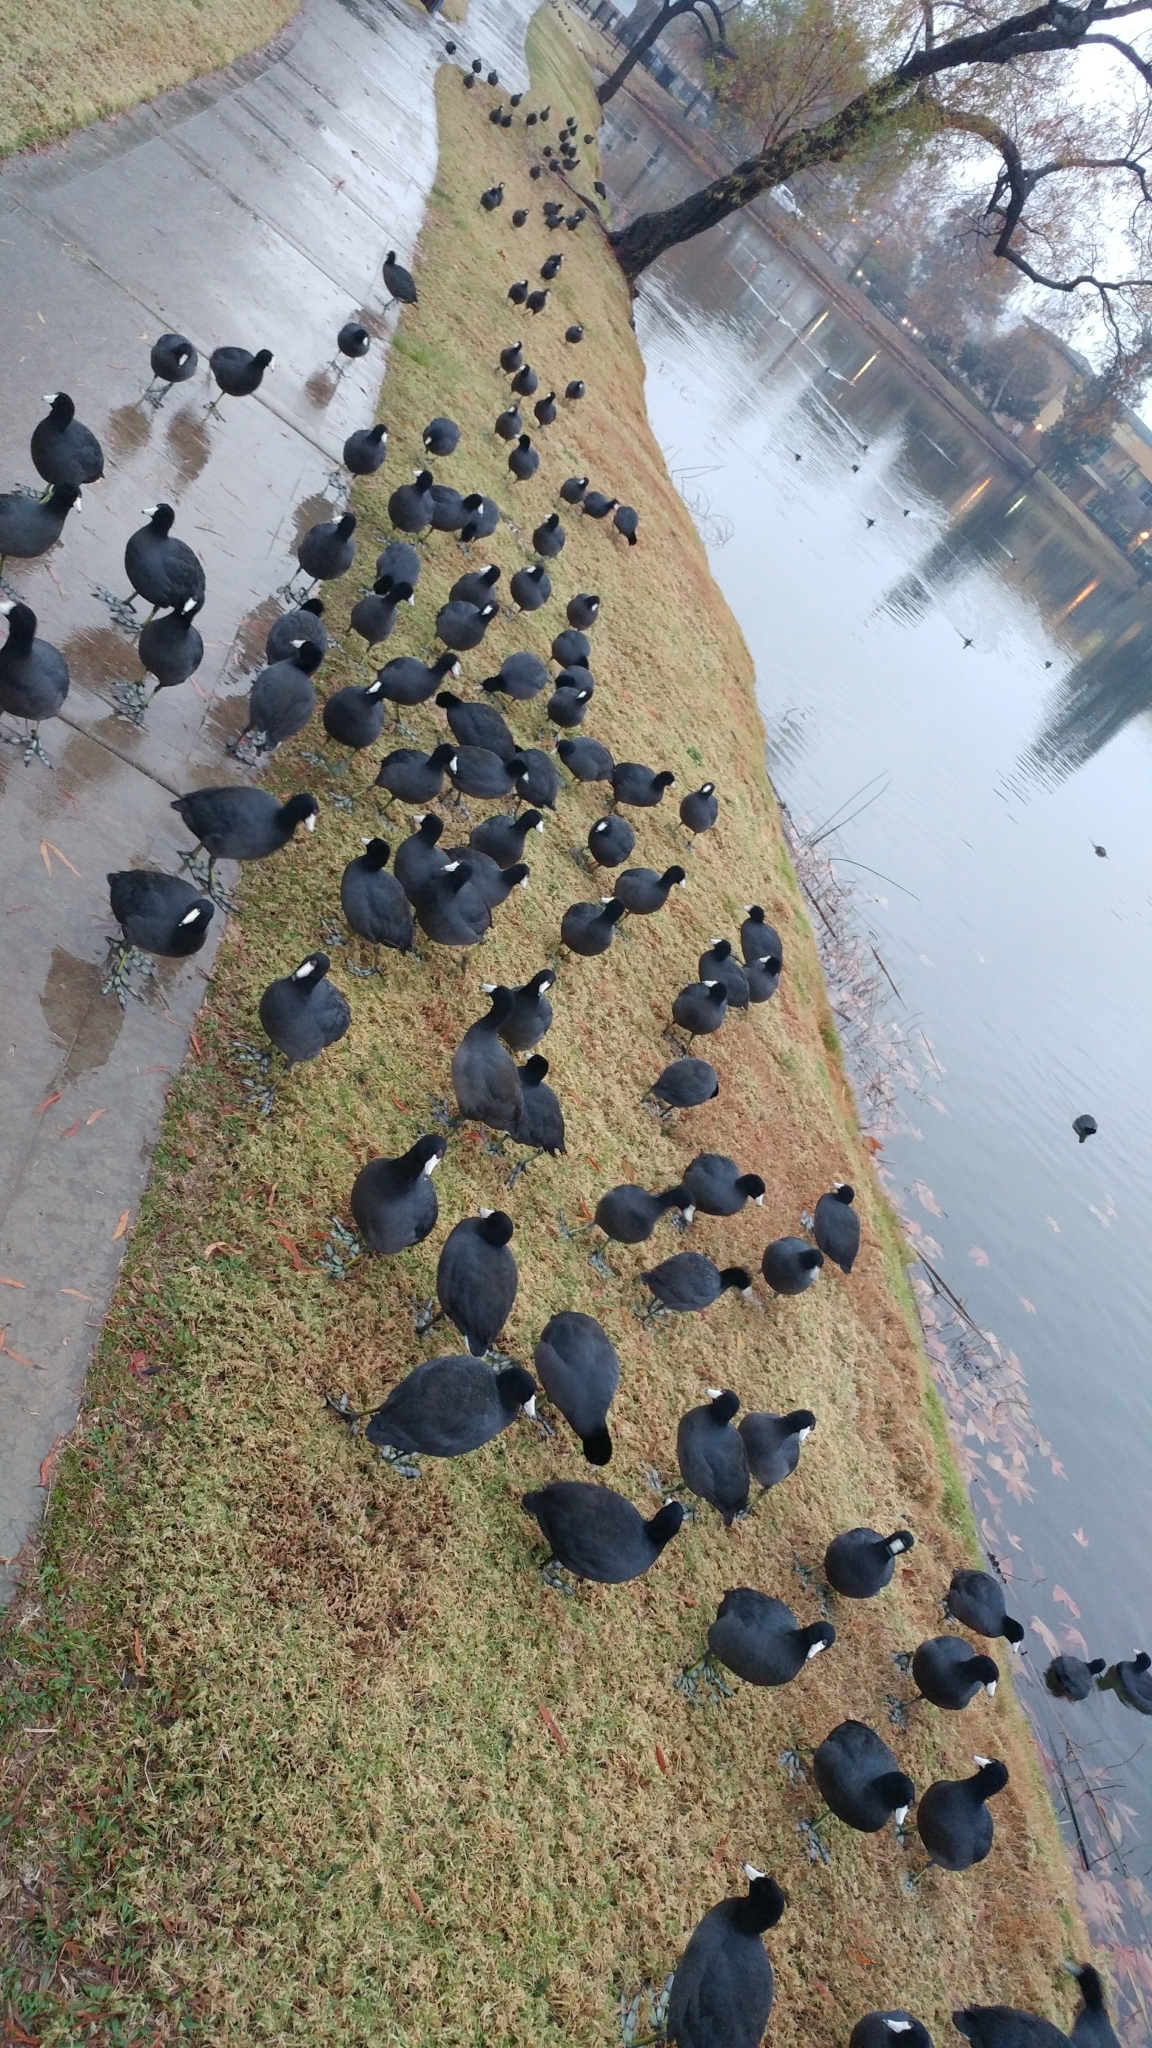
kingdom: Animalia
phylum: Chordata
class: Aves
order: Gruiformes
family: Rallidae
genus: Fulica
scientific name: Fulica americana
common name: American coot
